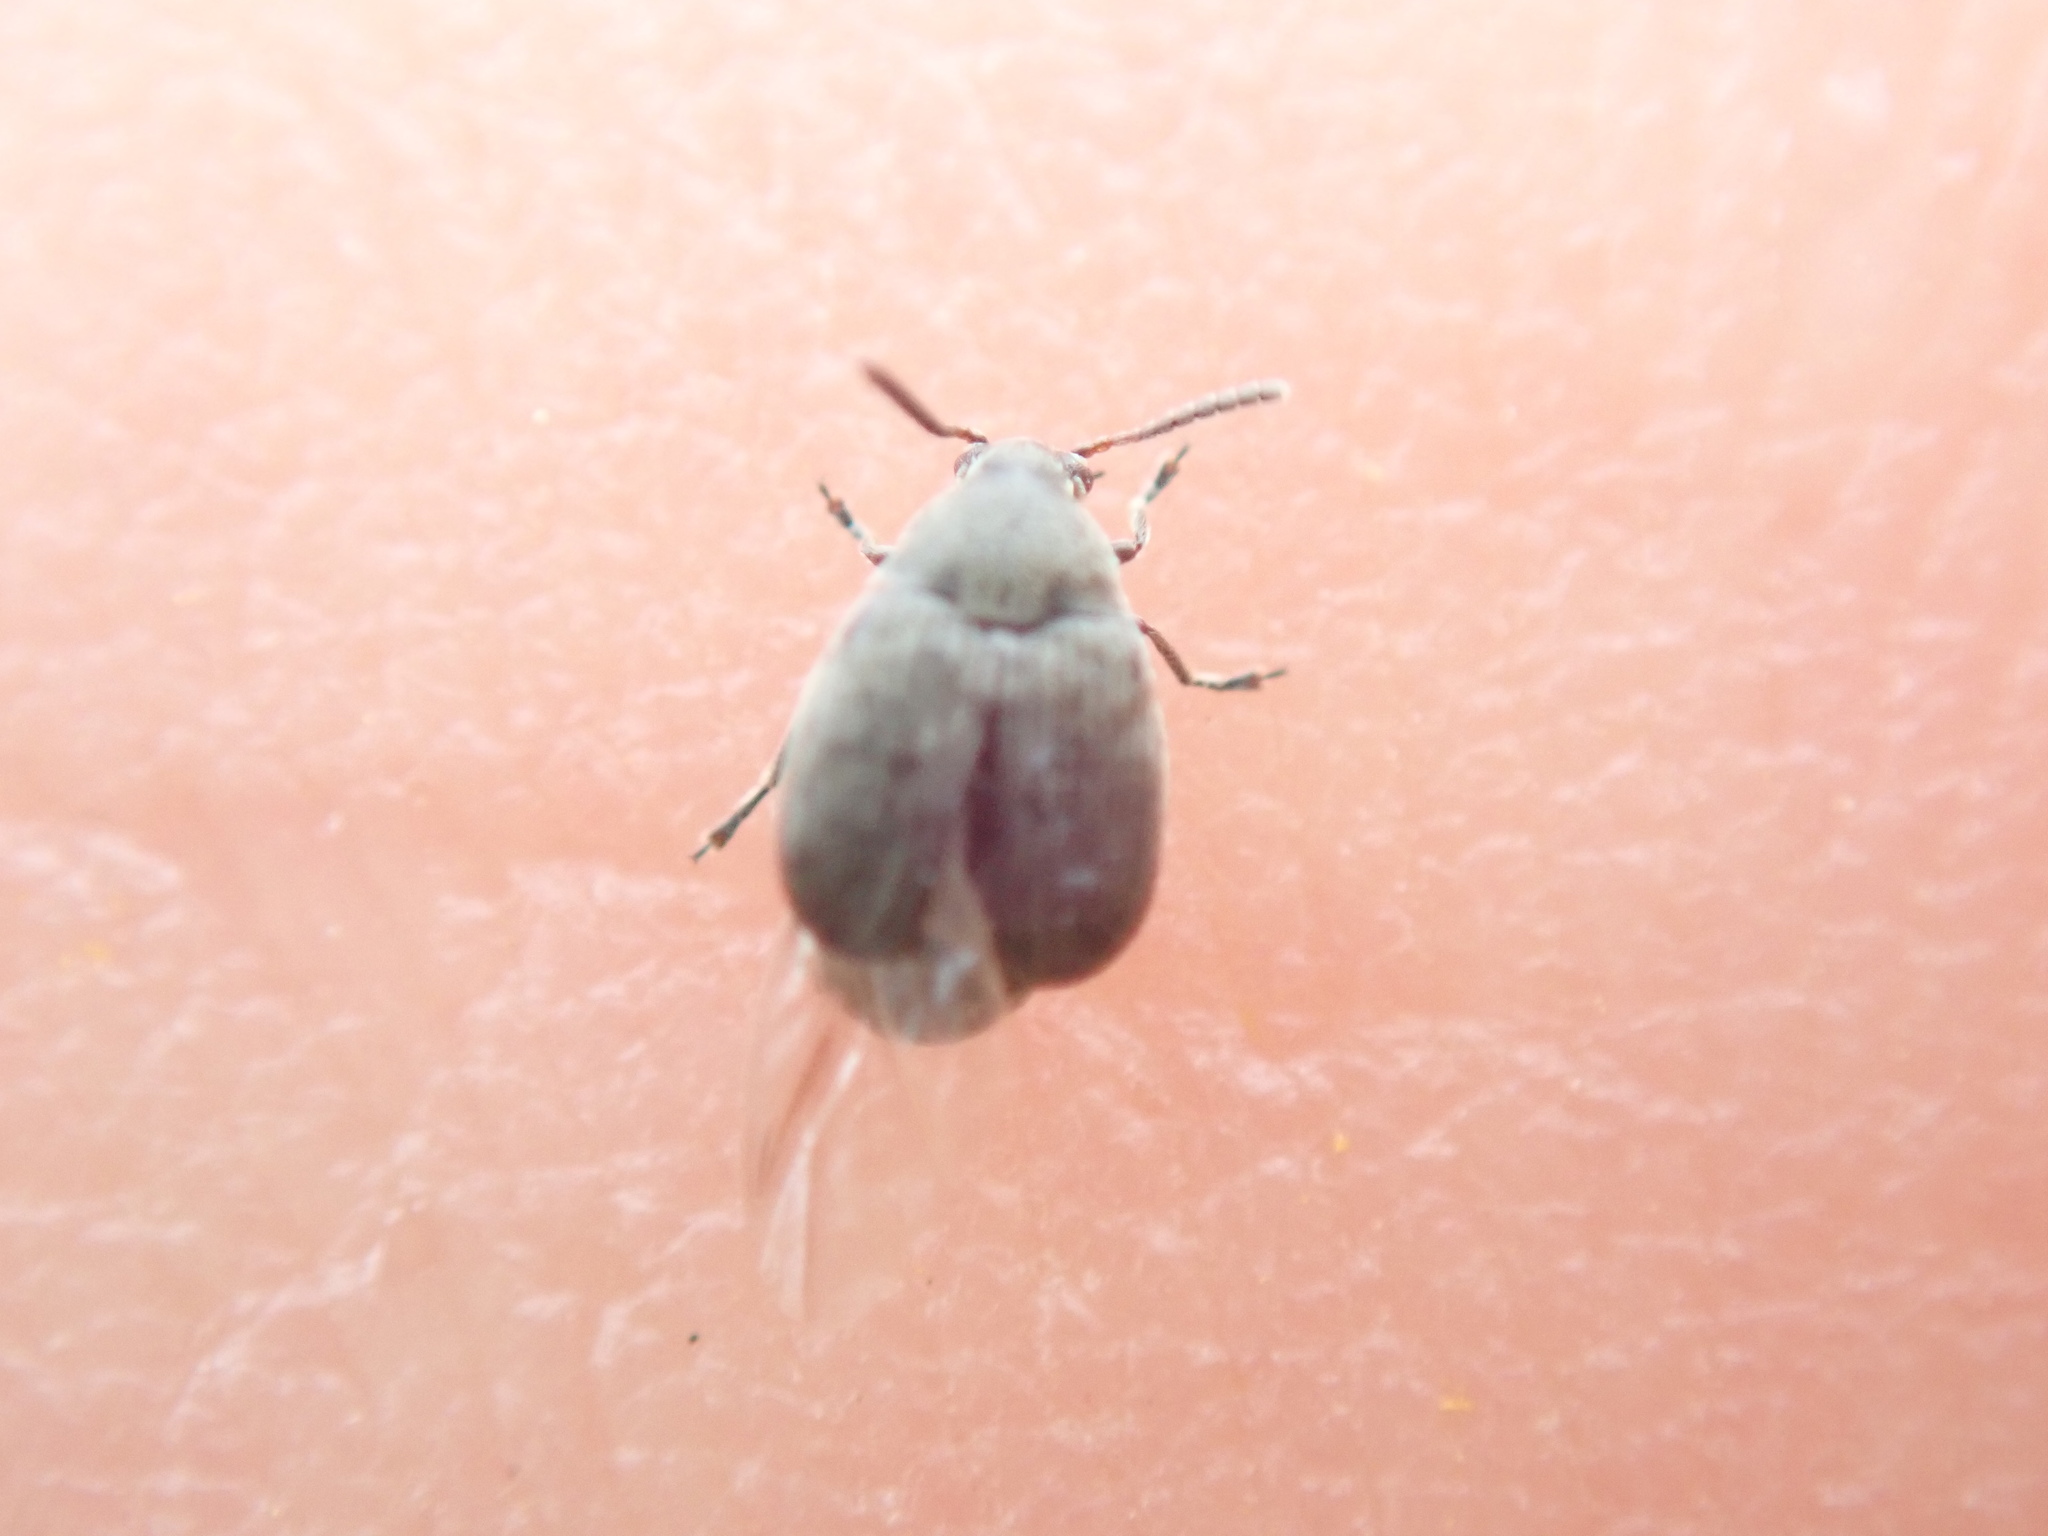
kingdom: Animalia
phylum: Arthropoda
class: Insecta
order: Coleoptera
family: Chrysomelidae
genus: Bruchidius
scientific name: Bruchidius villosus
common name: Scotch broom bruchid
